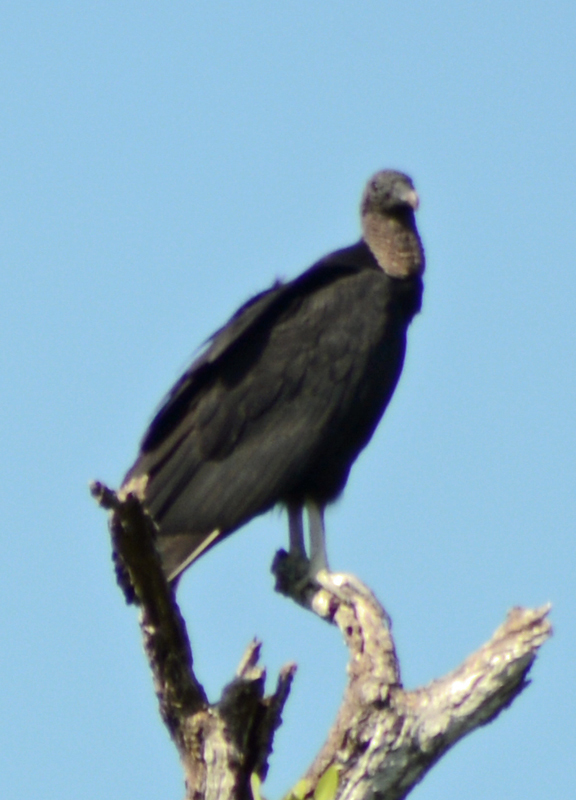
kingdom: Animalia
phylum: Chordata
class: Aves
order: Accipitriformes
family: Cathartidae
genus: Coragyps
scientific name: Coragyps atratus
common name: Black vulture
